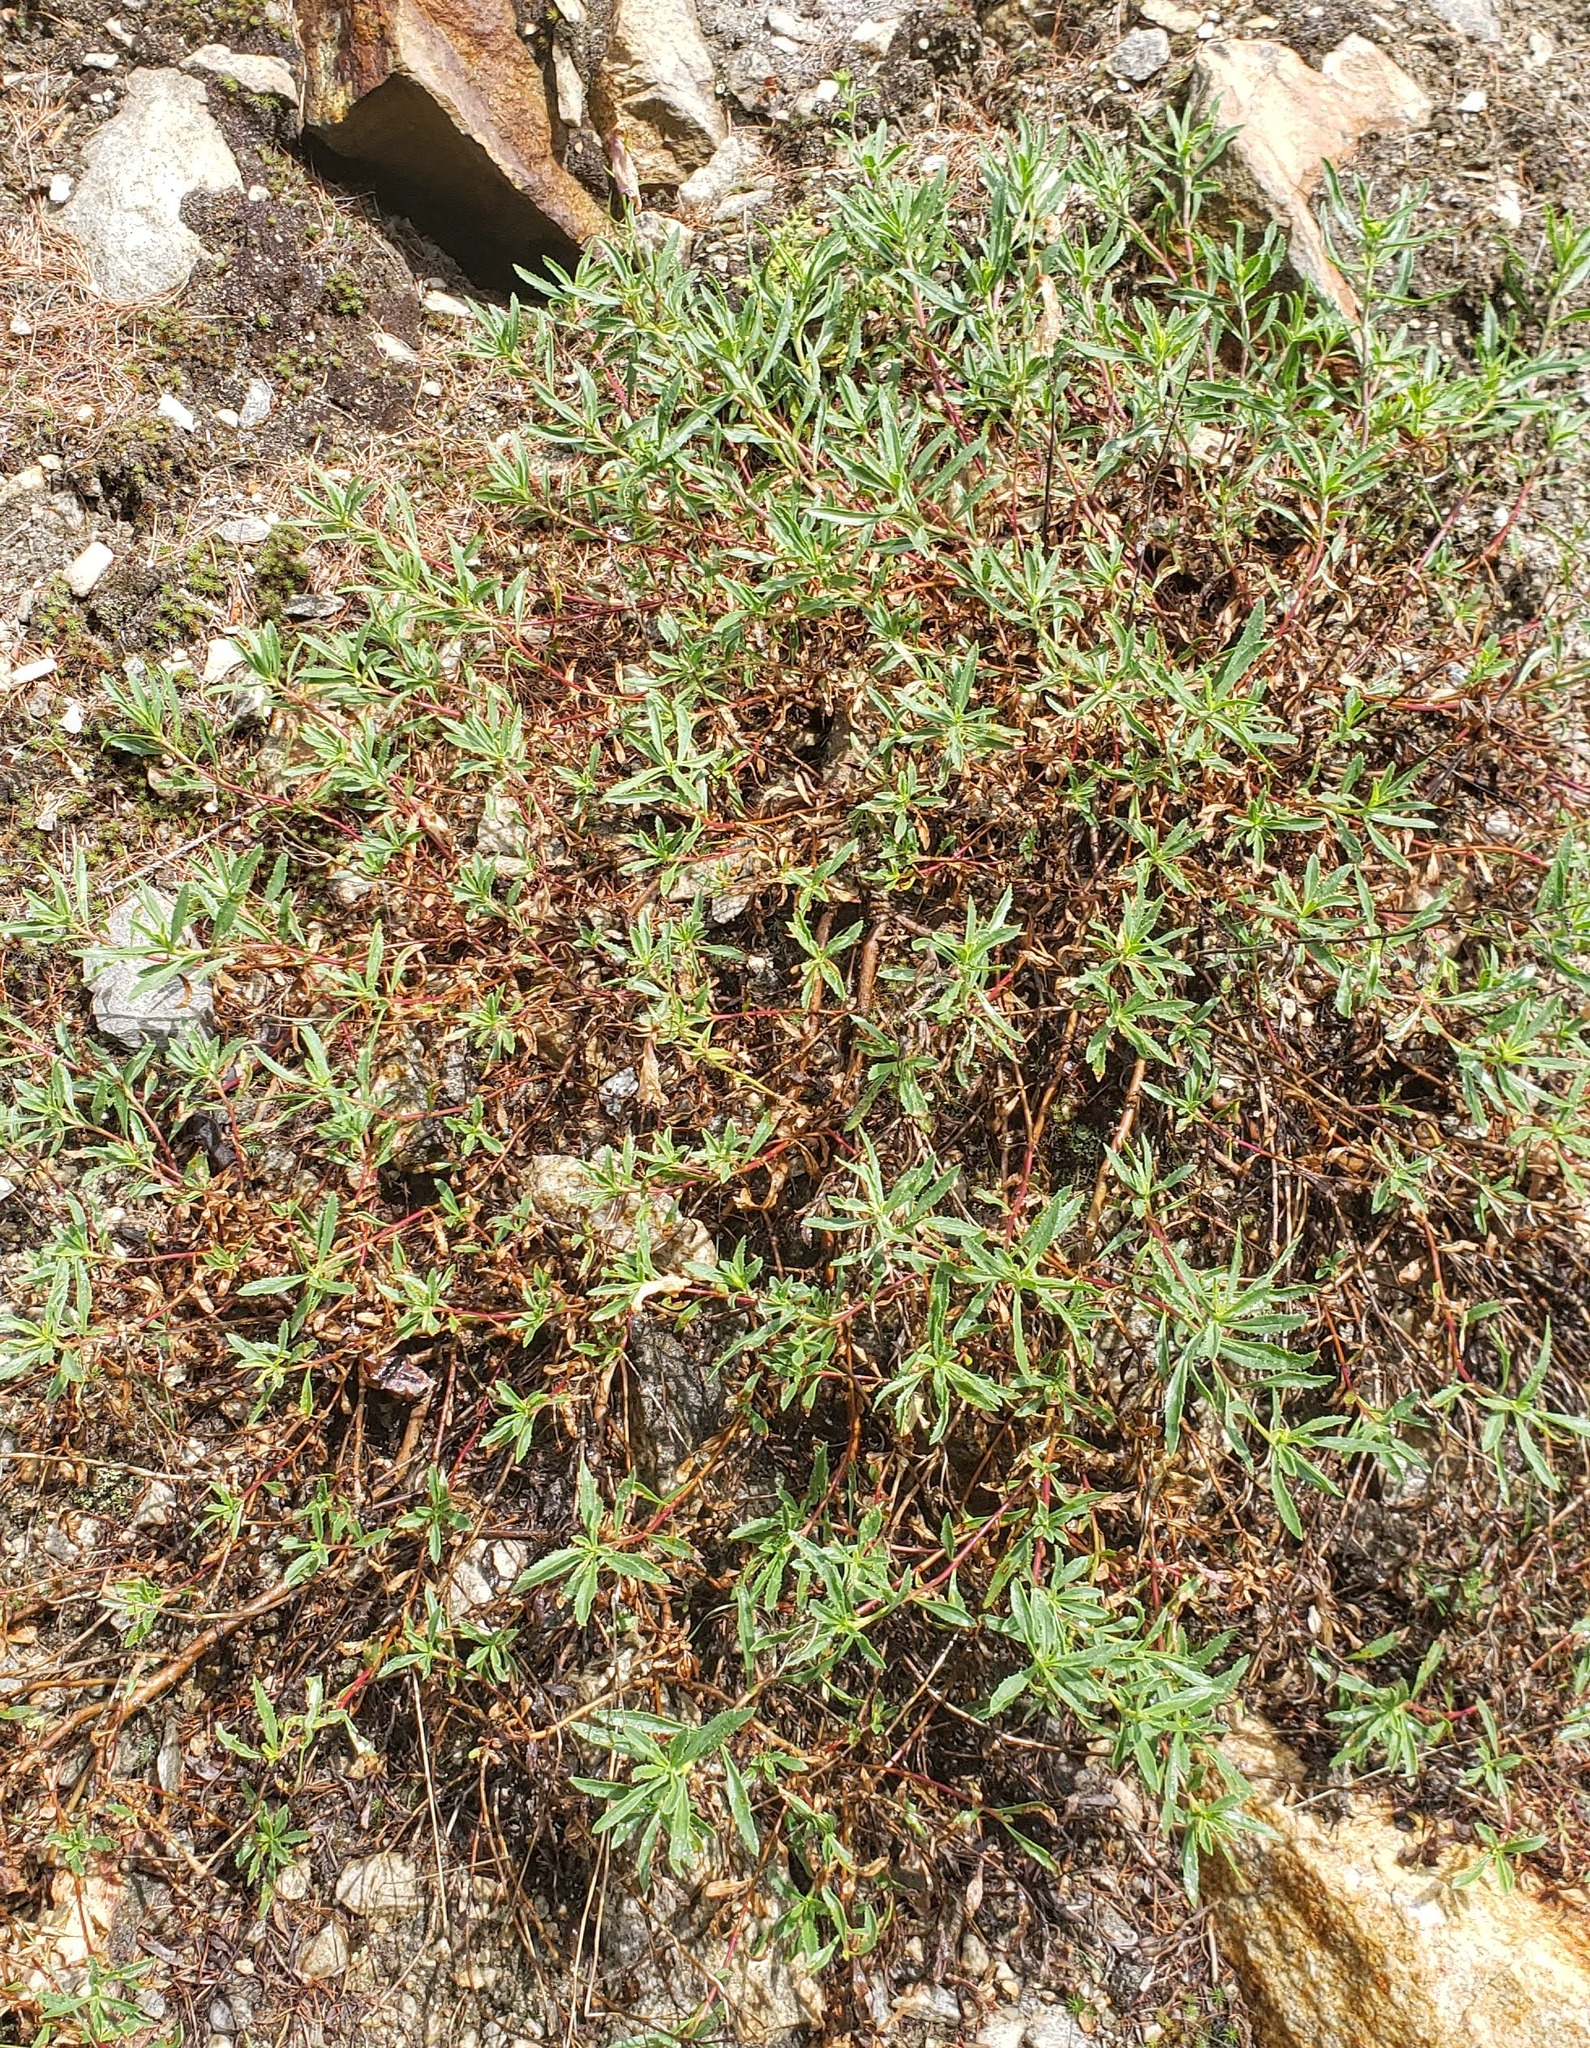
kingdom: Plantae
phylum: Tracheophyta
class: Magnoliopsida
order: Lamiales
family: Plantaginaceae
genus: Penstemon
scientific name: Penstemon fruticosus
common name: Bush penstemon
